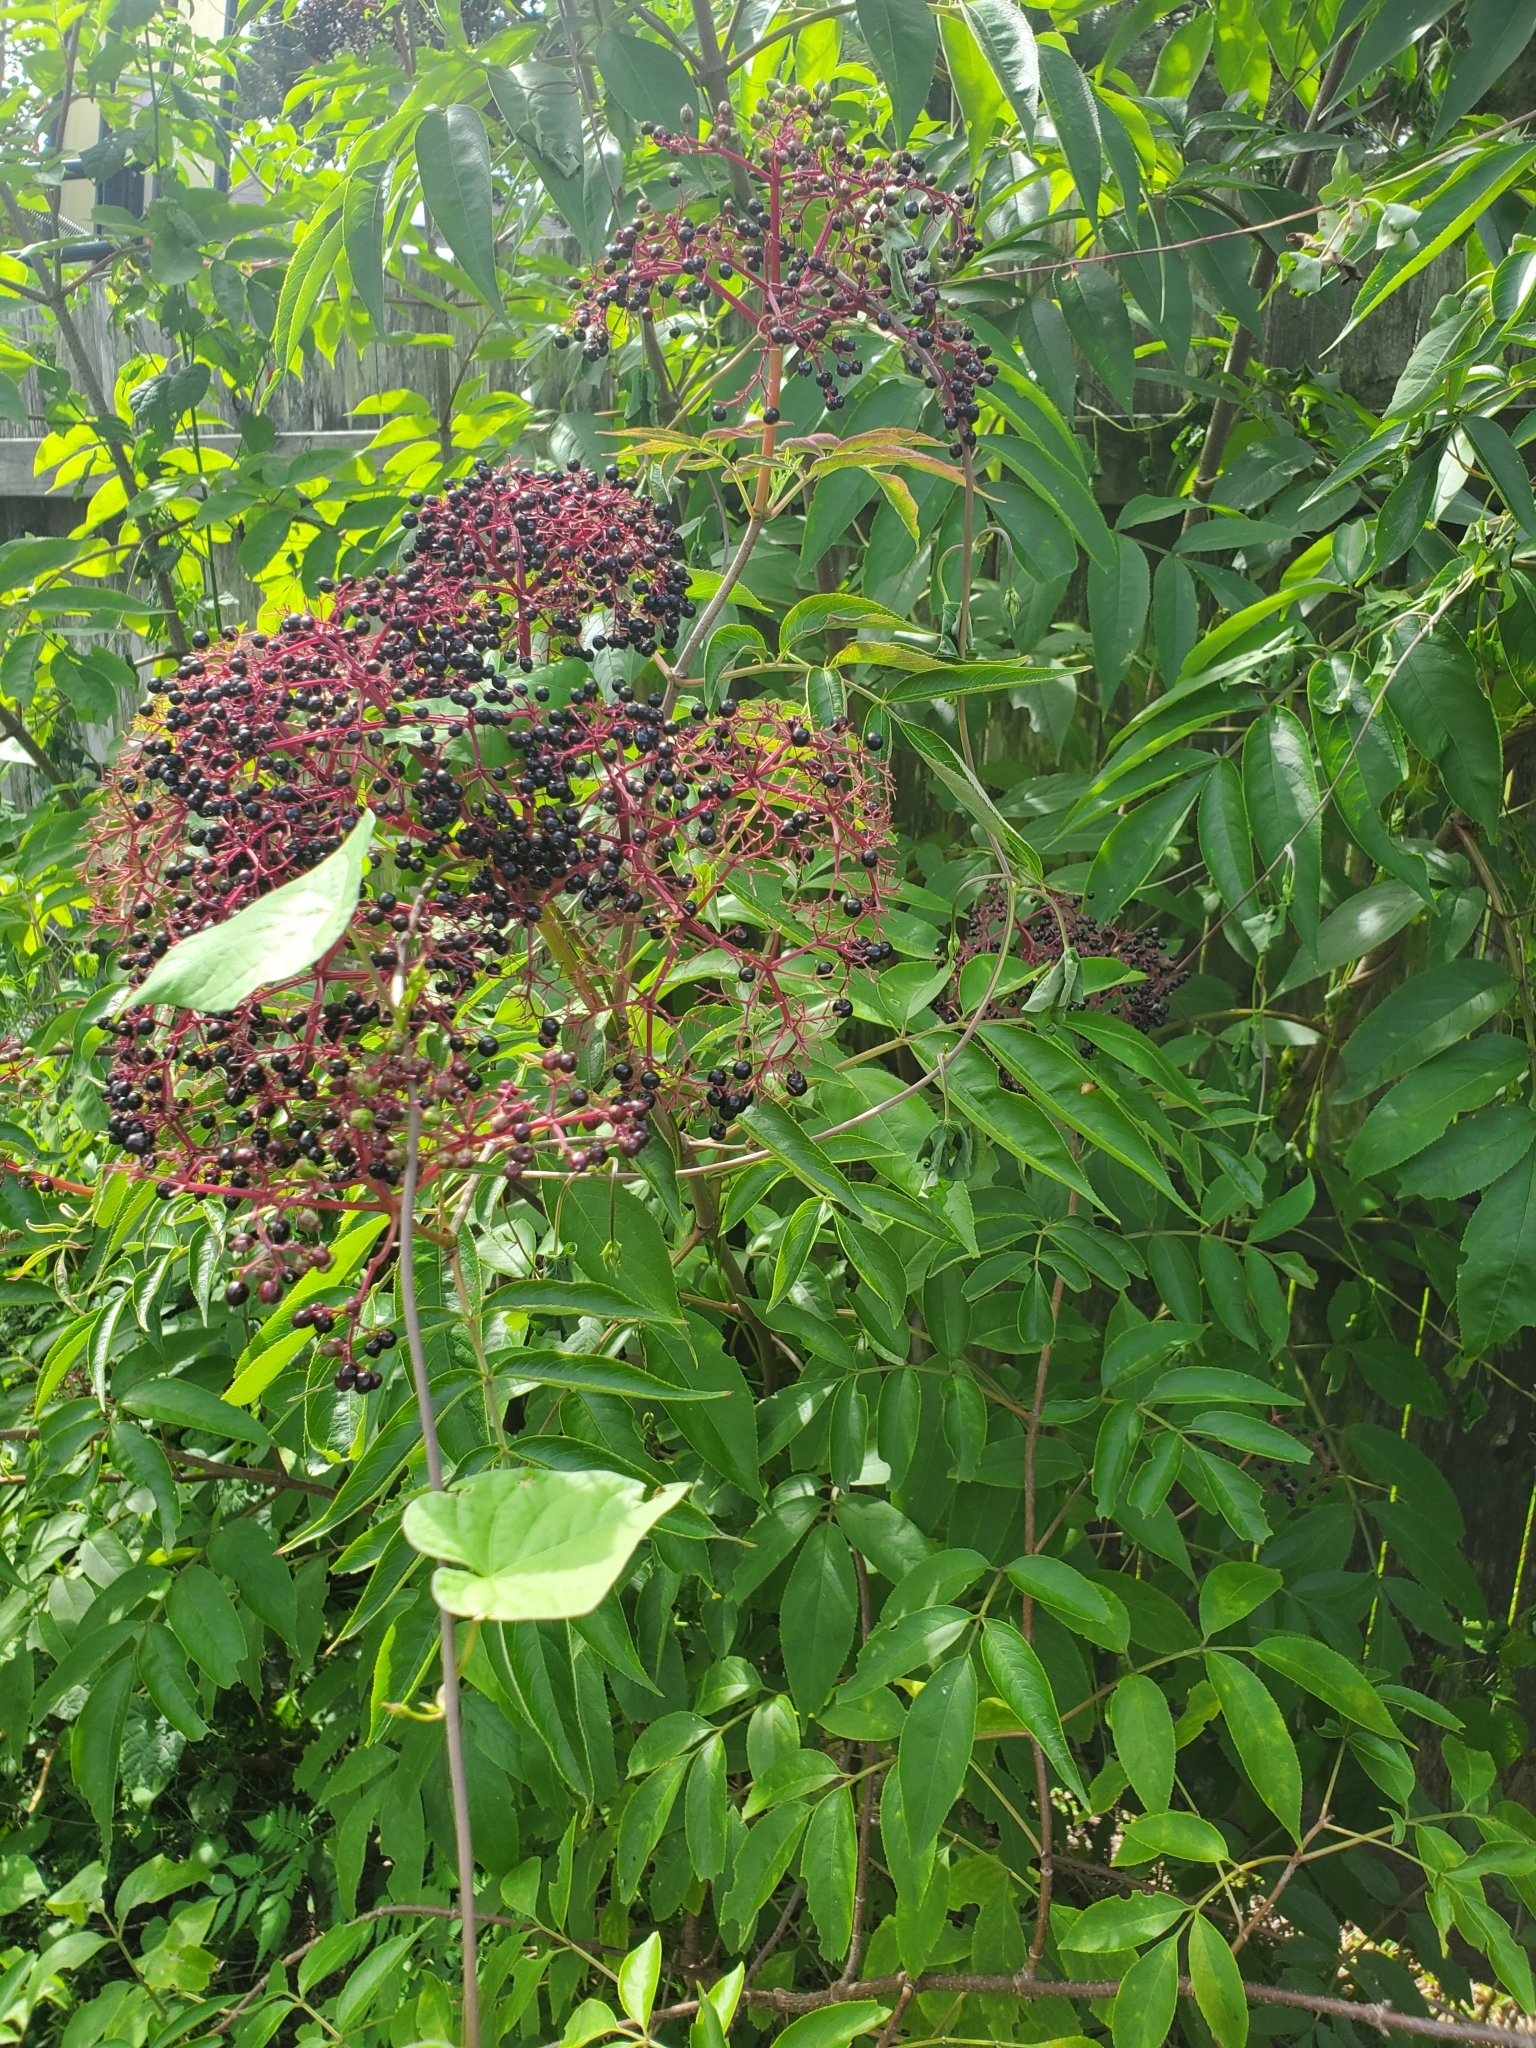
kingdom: Plantae
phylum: Tracheophyta
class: Magnoliopsida
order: Dipsacales
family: Viburnaceae
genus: Sambucus
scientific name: Sambucus canadensis
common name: American elder
